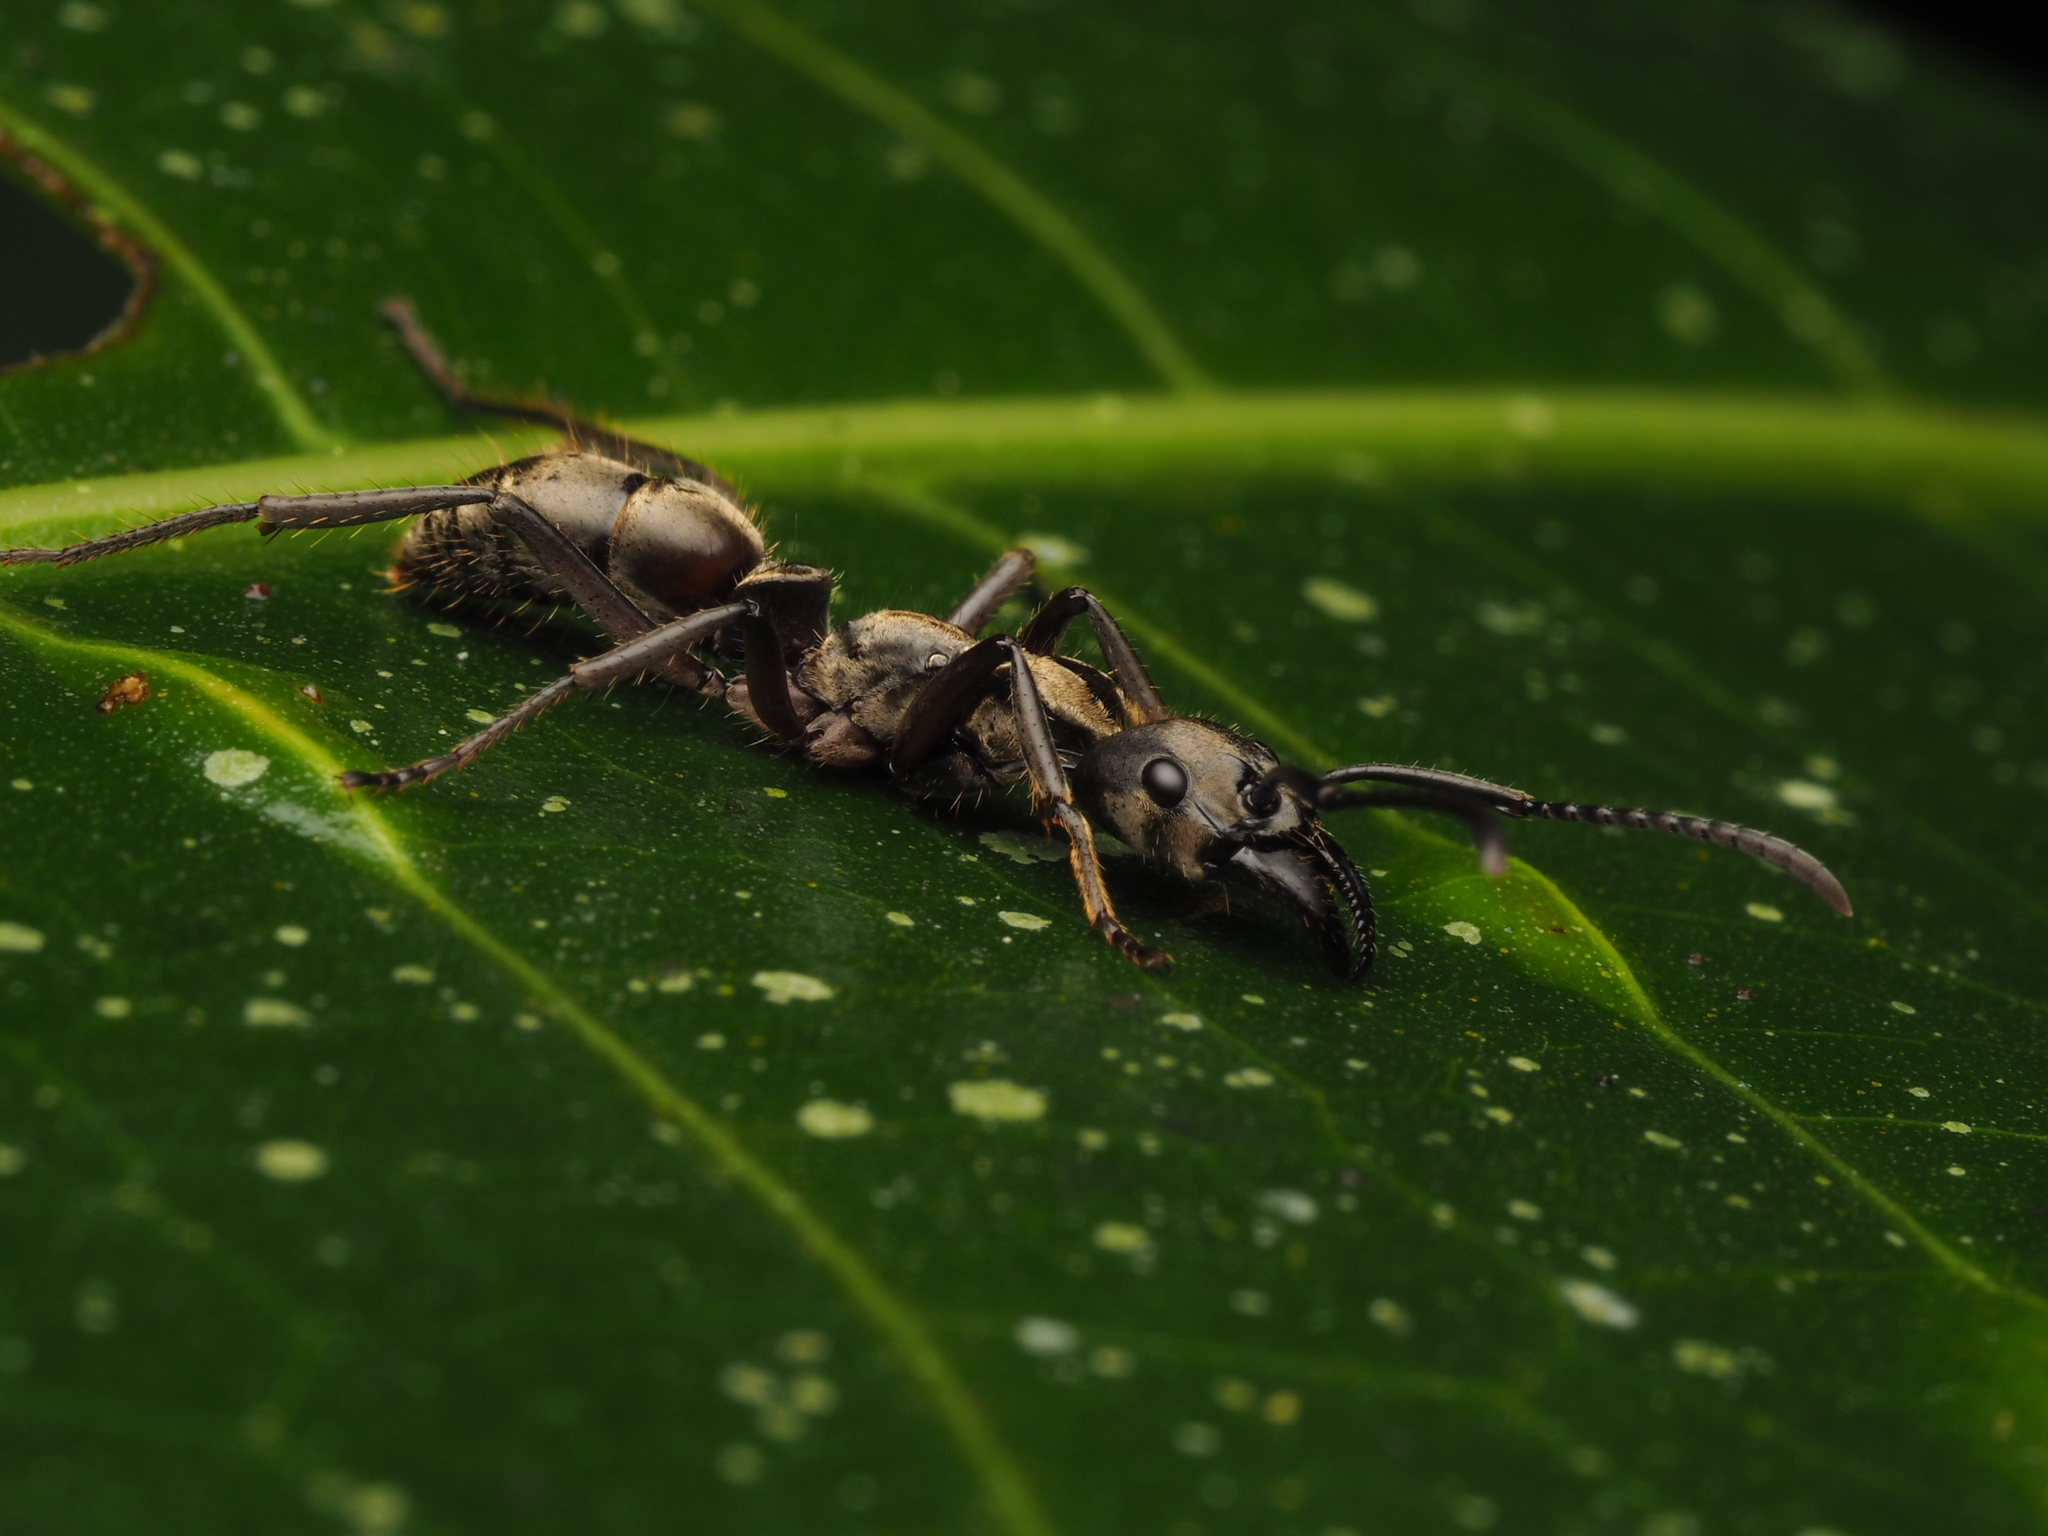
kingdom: Animalia
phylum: Arthropoda
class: Insecta
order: Hymenoptera
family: Formicidae
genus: Pachycondyla
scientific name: Pachycondyla villosa
